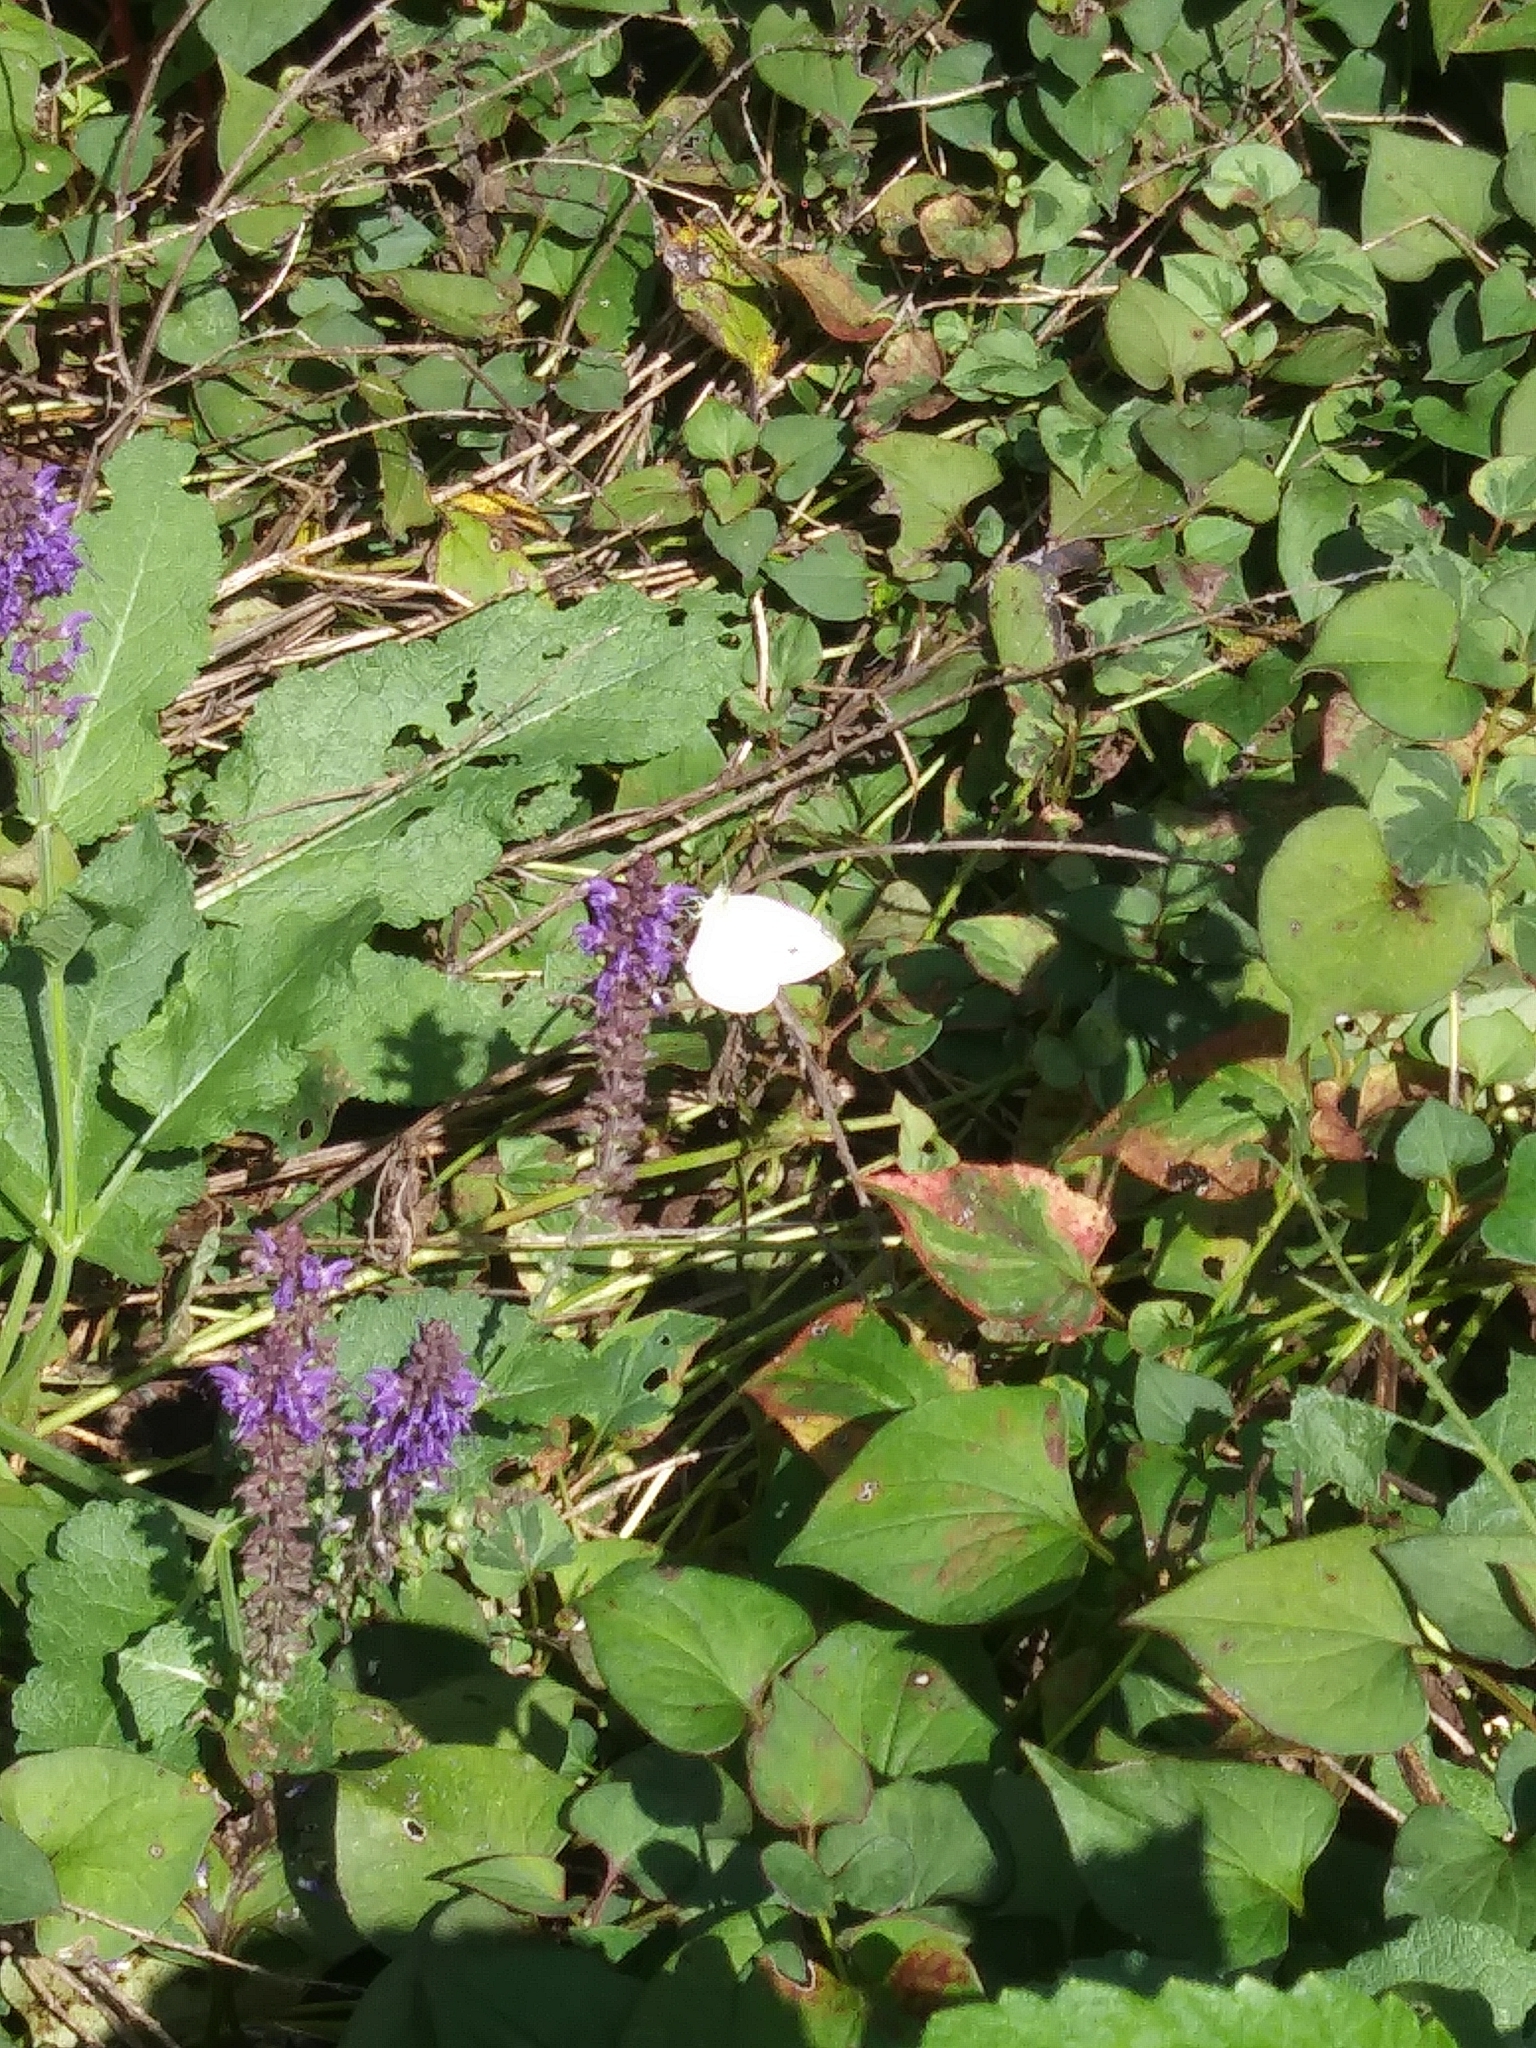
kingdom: Animalia
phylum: Arthropoda
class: Insecta
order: Lepidoptera
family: Pieridae
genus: Pieris
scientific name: Pieris rapae
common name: Small white
